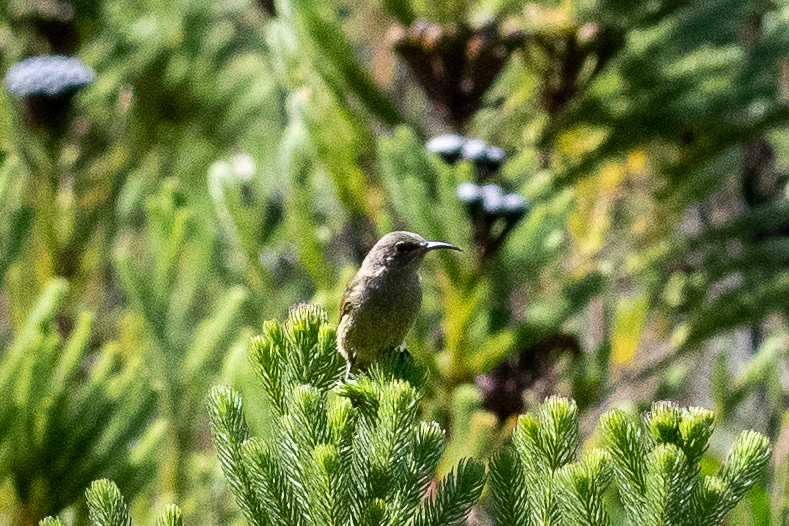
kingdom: Animalia
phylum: Chordata
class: Aves
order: Passeriformes
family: Nectariniidae
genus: Anthobaphes
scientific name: Anthobaphes violacea
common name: Orange-breasted sunbird
